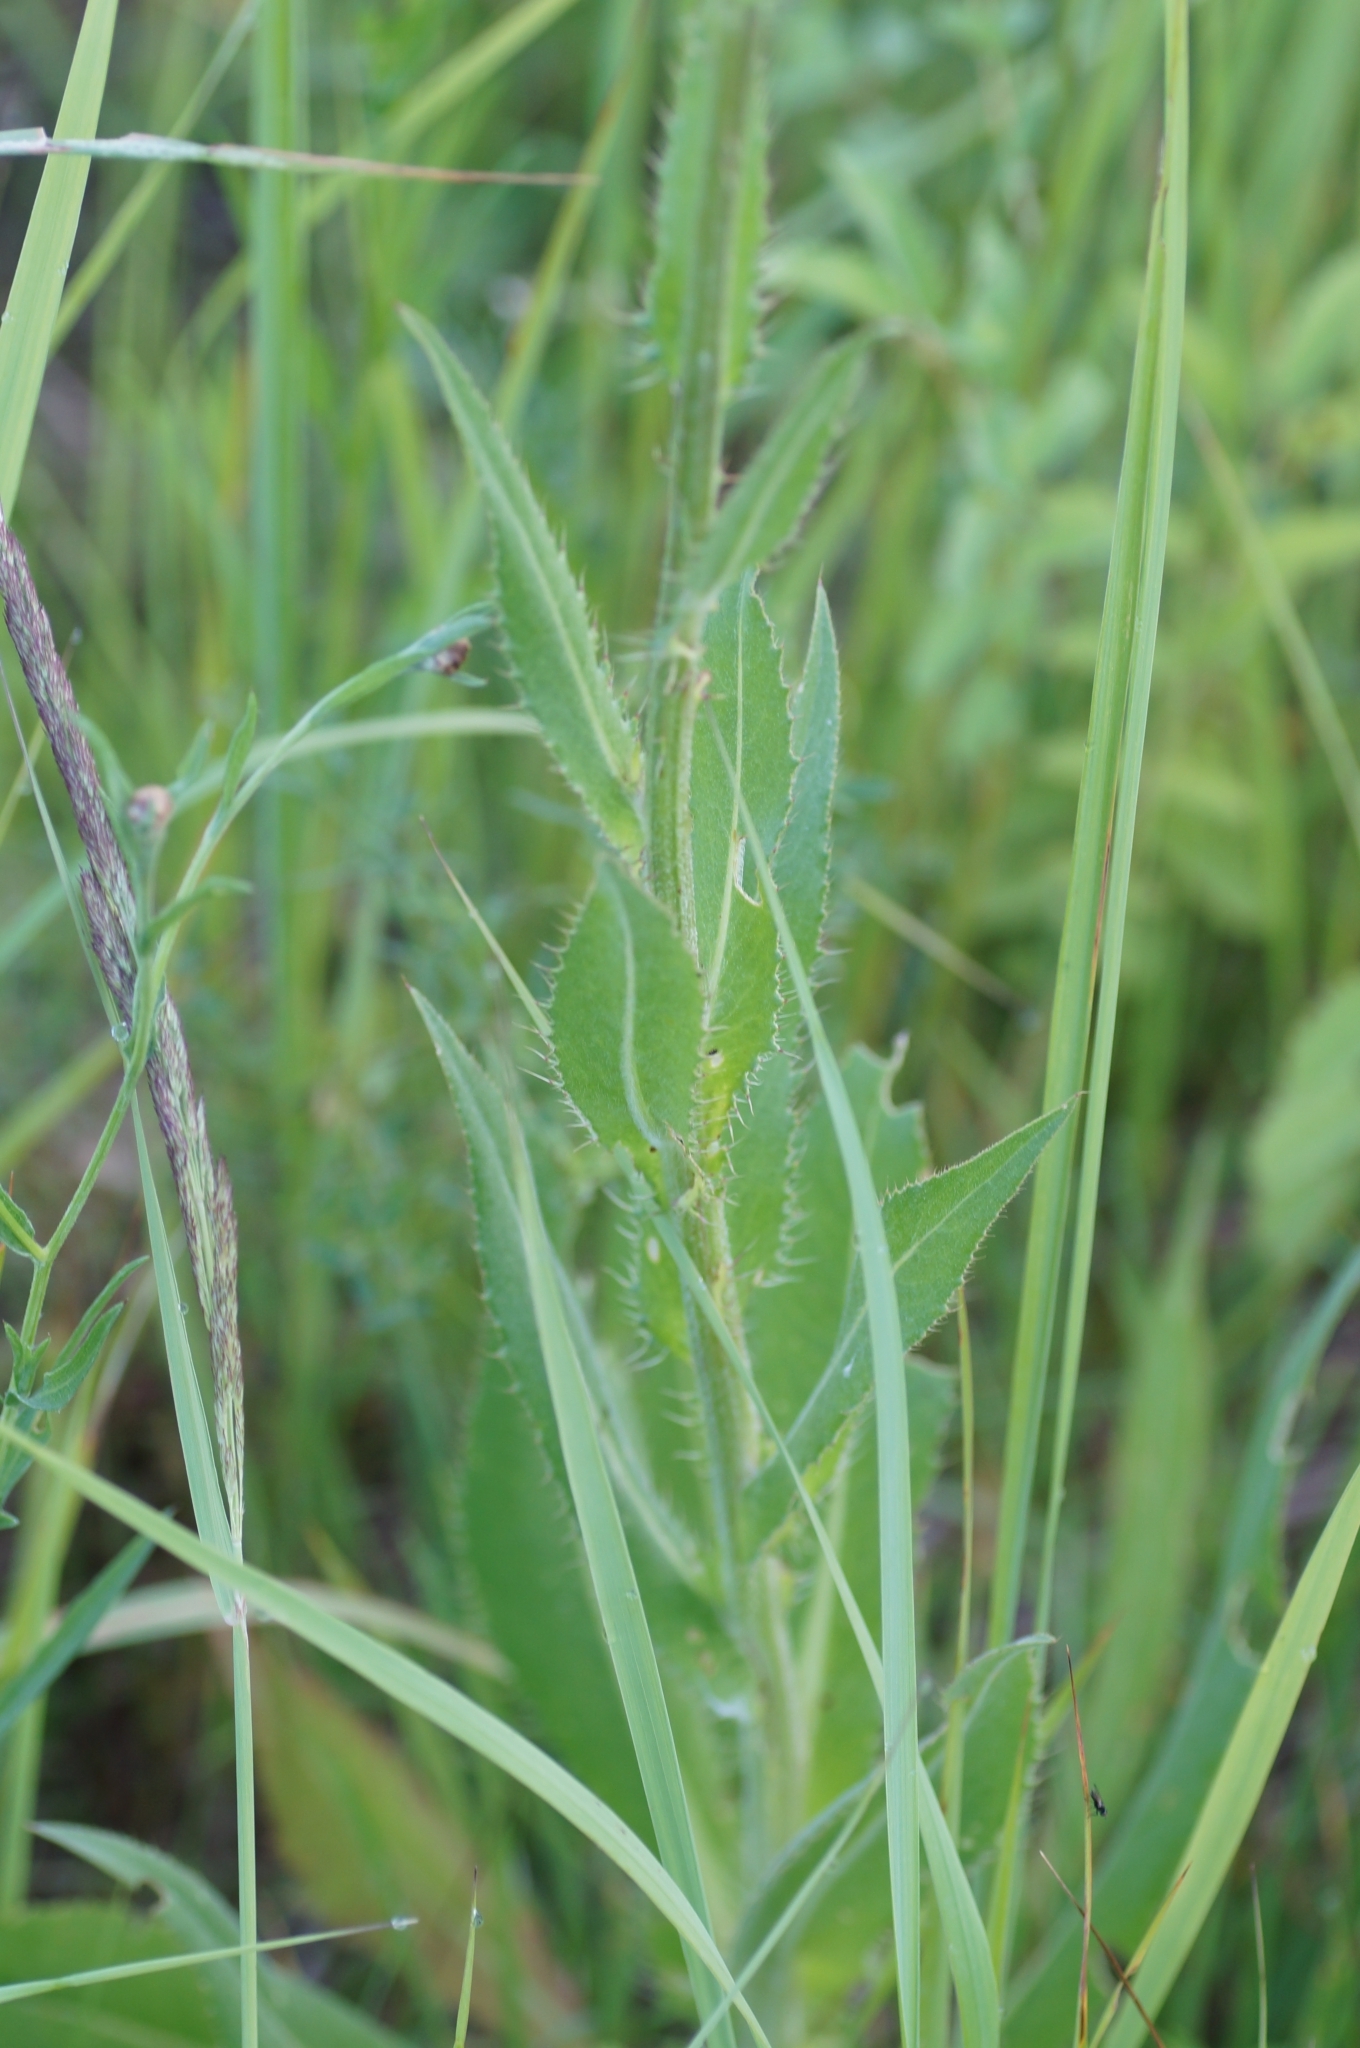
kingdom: Plantae
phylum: Tracheophyta
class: Magnoliopsida
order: Asterales
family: Asteraceae
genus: Cirsium
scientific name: Cirsium canum
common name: Queen anne's thistle
